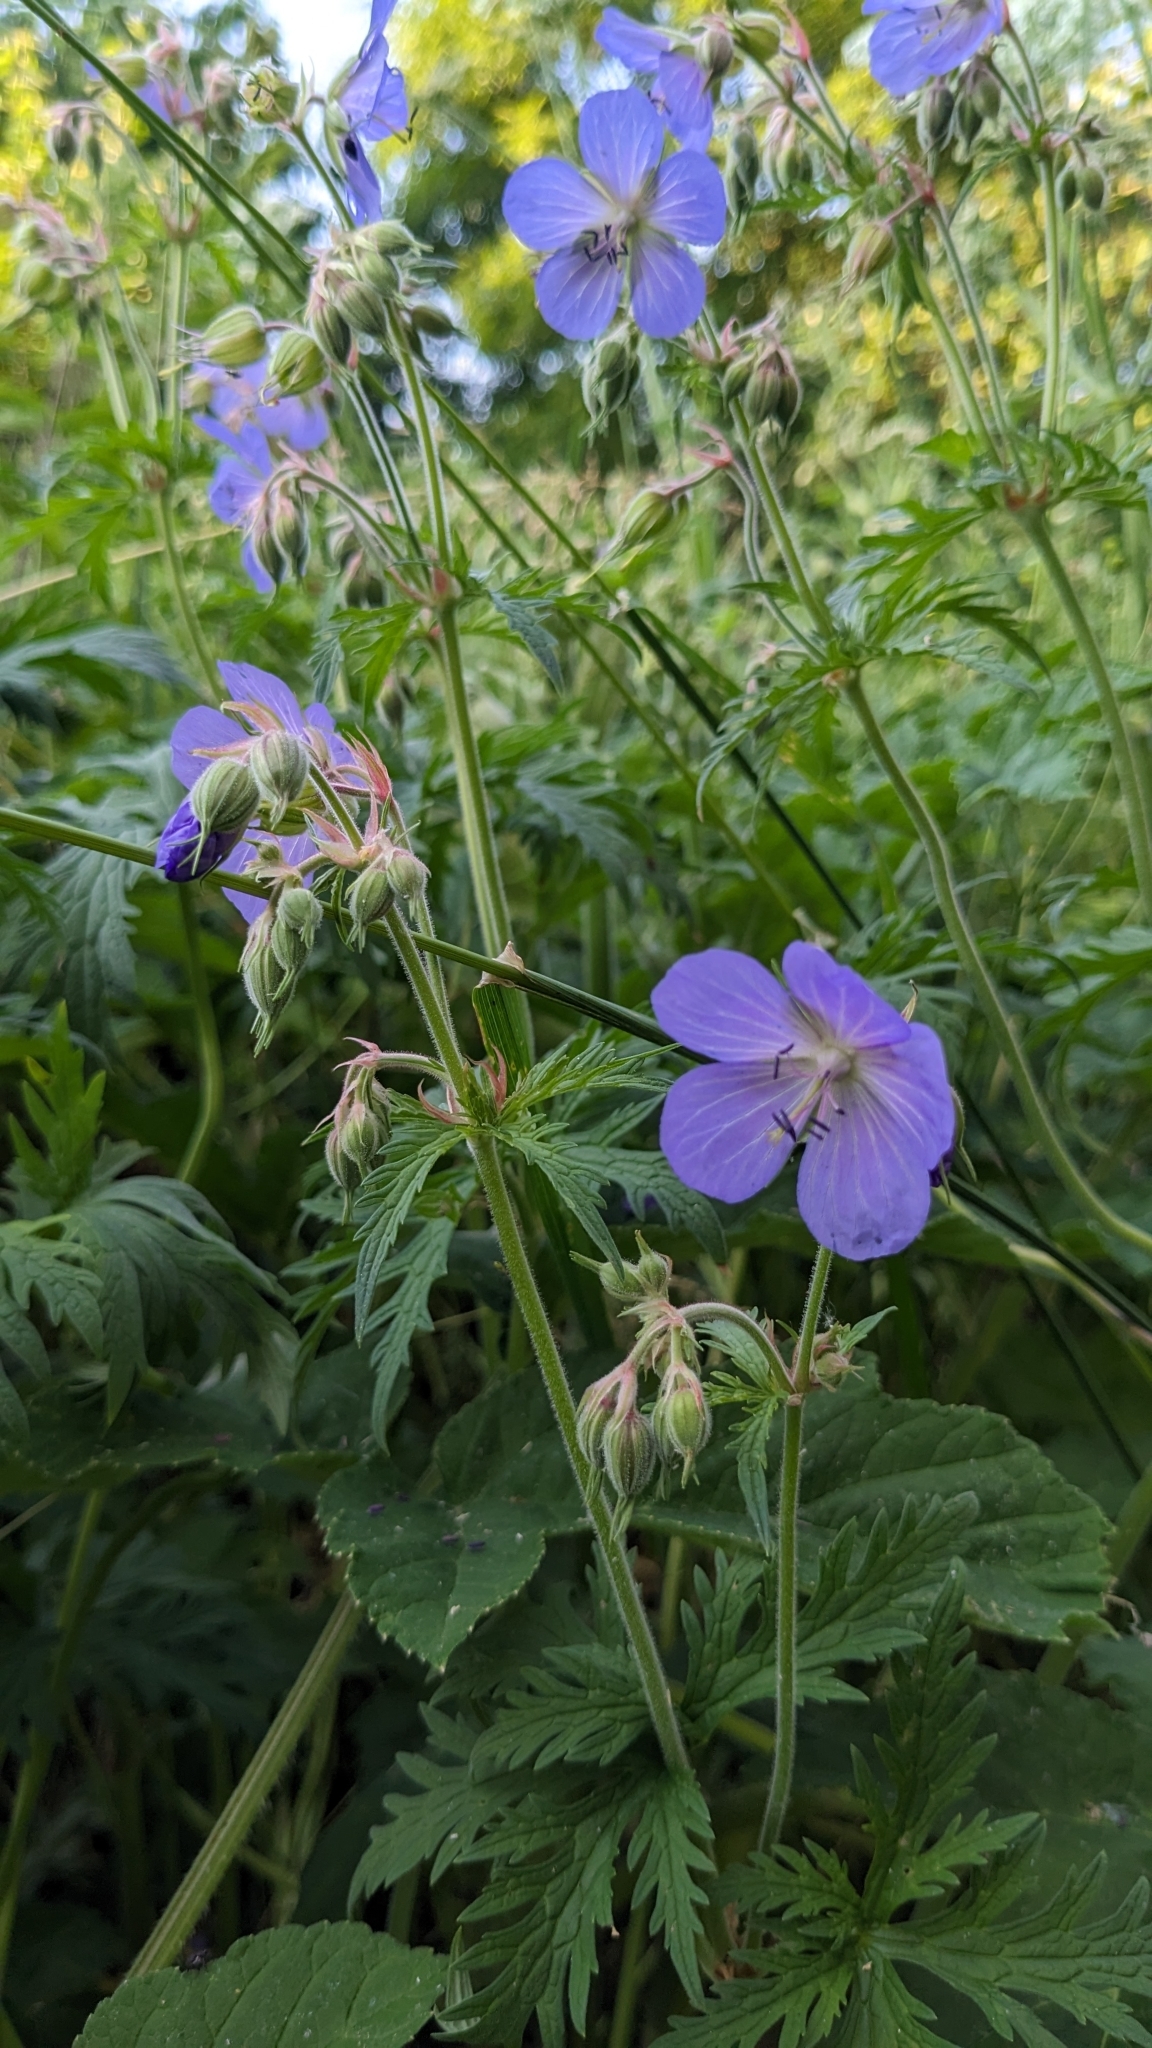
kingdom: Plantae
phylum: Tracheophyta
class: Magnoliopsida
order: Geraniales
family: Geraniaceae
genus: Geranium
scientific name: Geranium pratense
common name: Meadow crane's-bill
